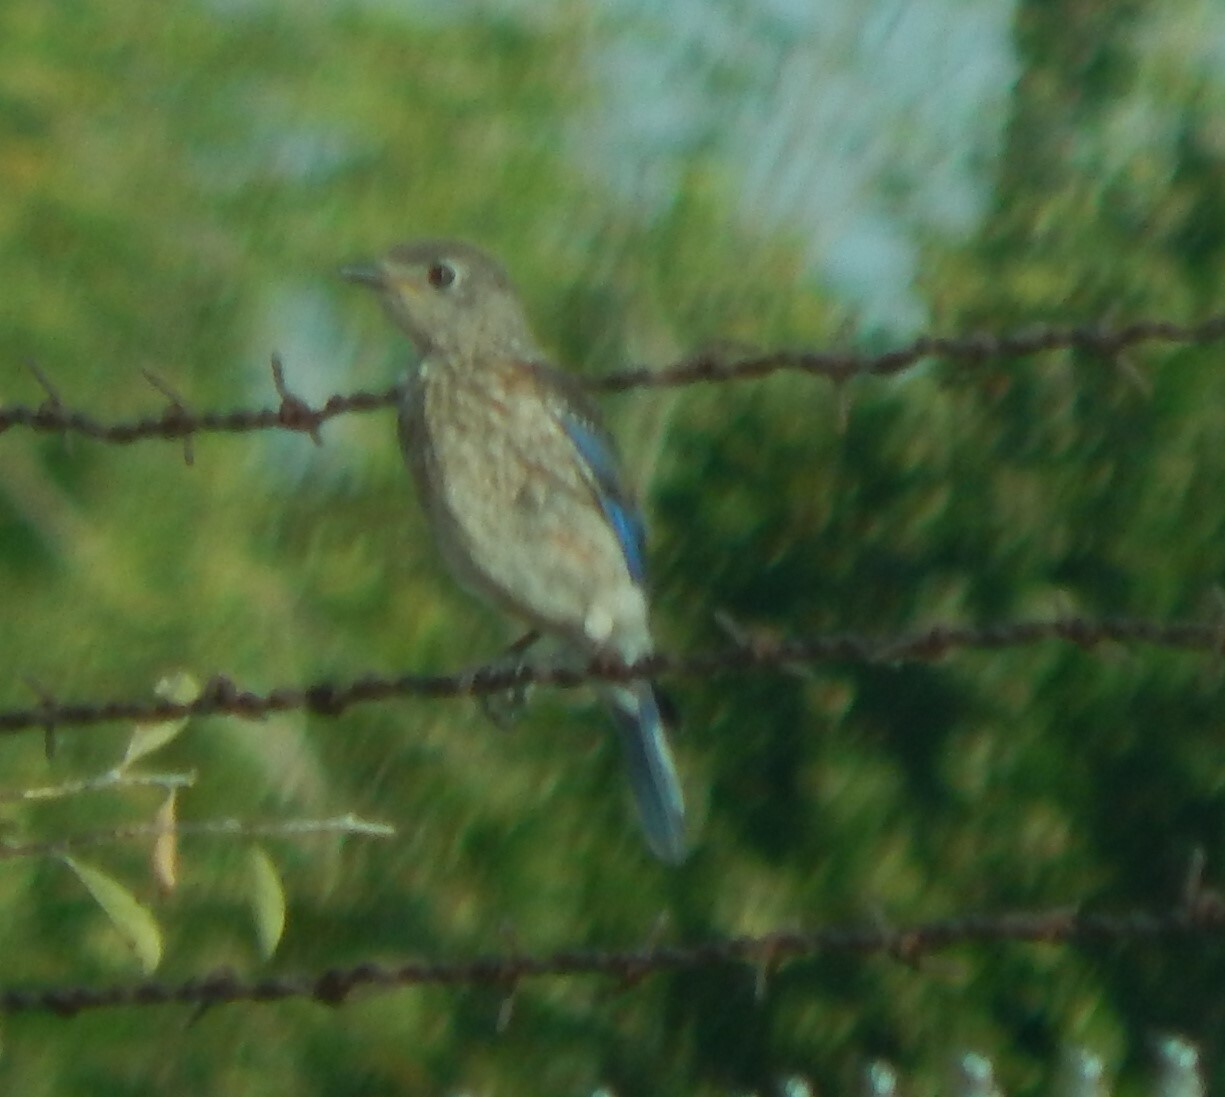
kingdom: Animalia
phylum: Chordata
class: Aves
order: Passeriformes
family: Turdidae
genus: Sialia
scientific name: Sialia sialis
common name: Eastern bluebird
